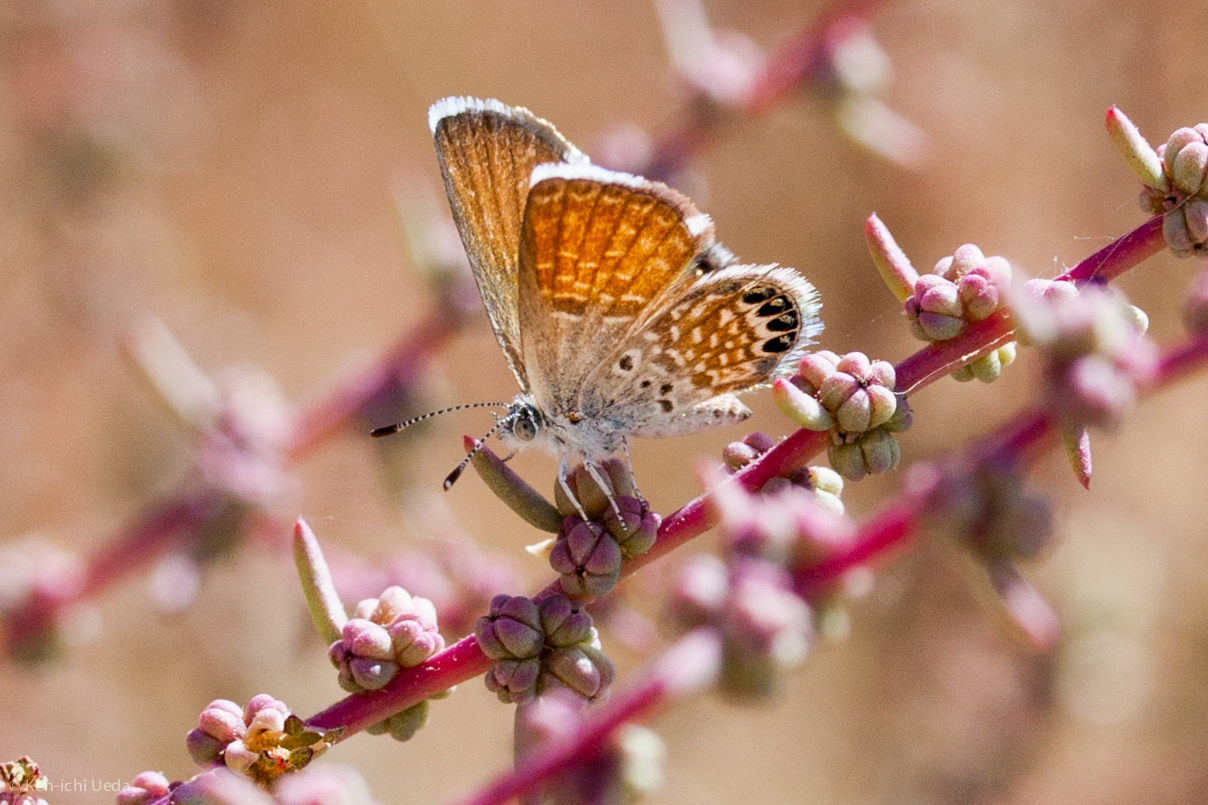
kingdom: Animalia
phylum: Arthropoda
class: Insecta
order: Lepidoptera
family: Lycaenidae
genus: Brephidium
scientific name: Brephidium exilis
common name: Pygmy blue
